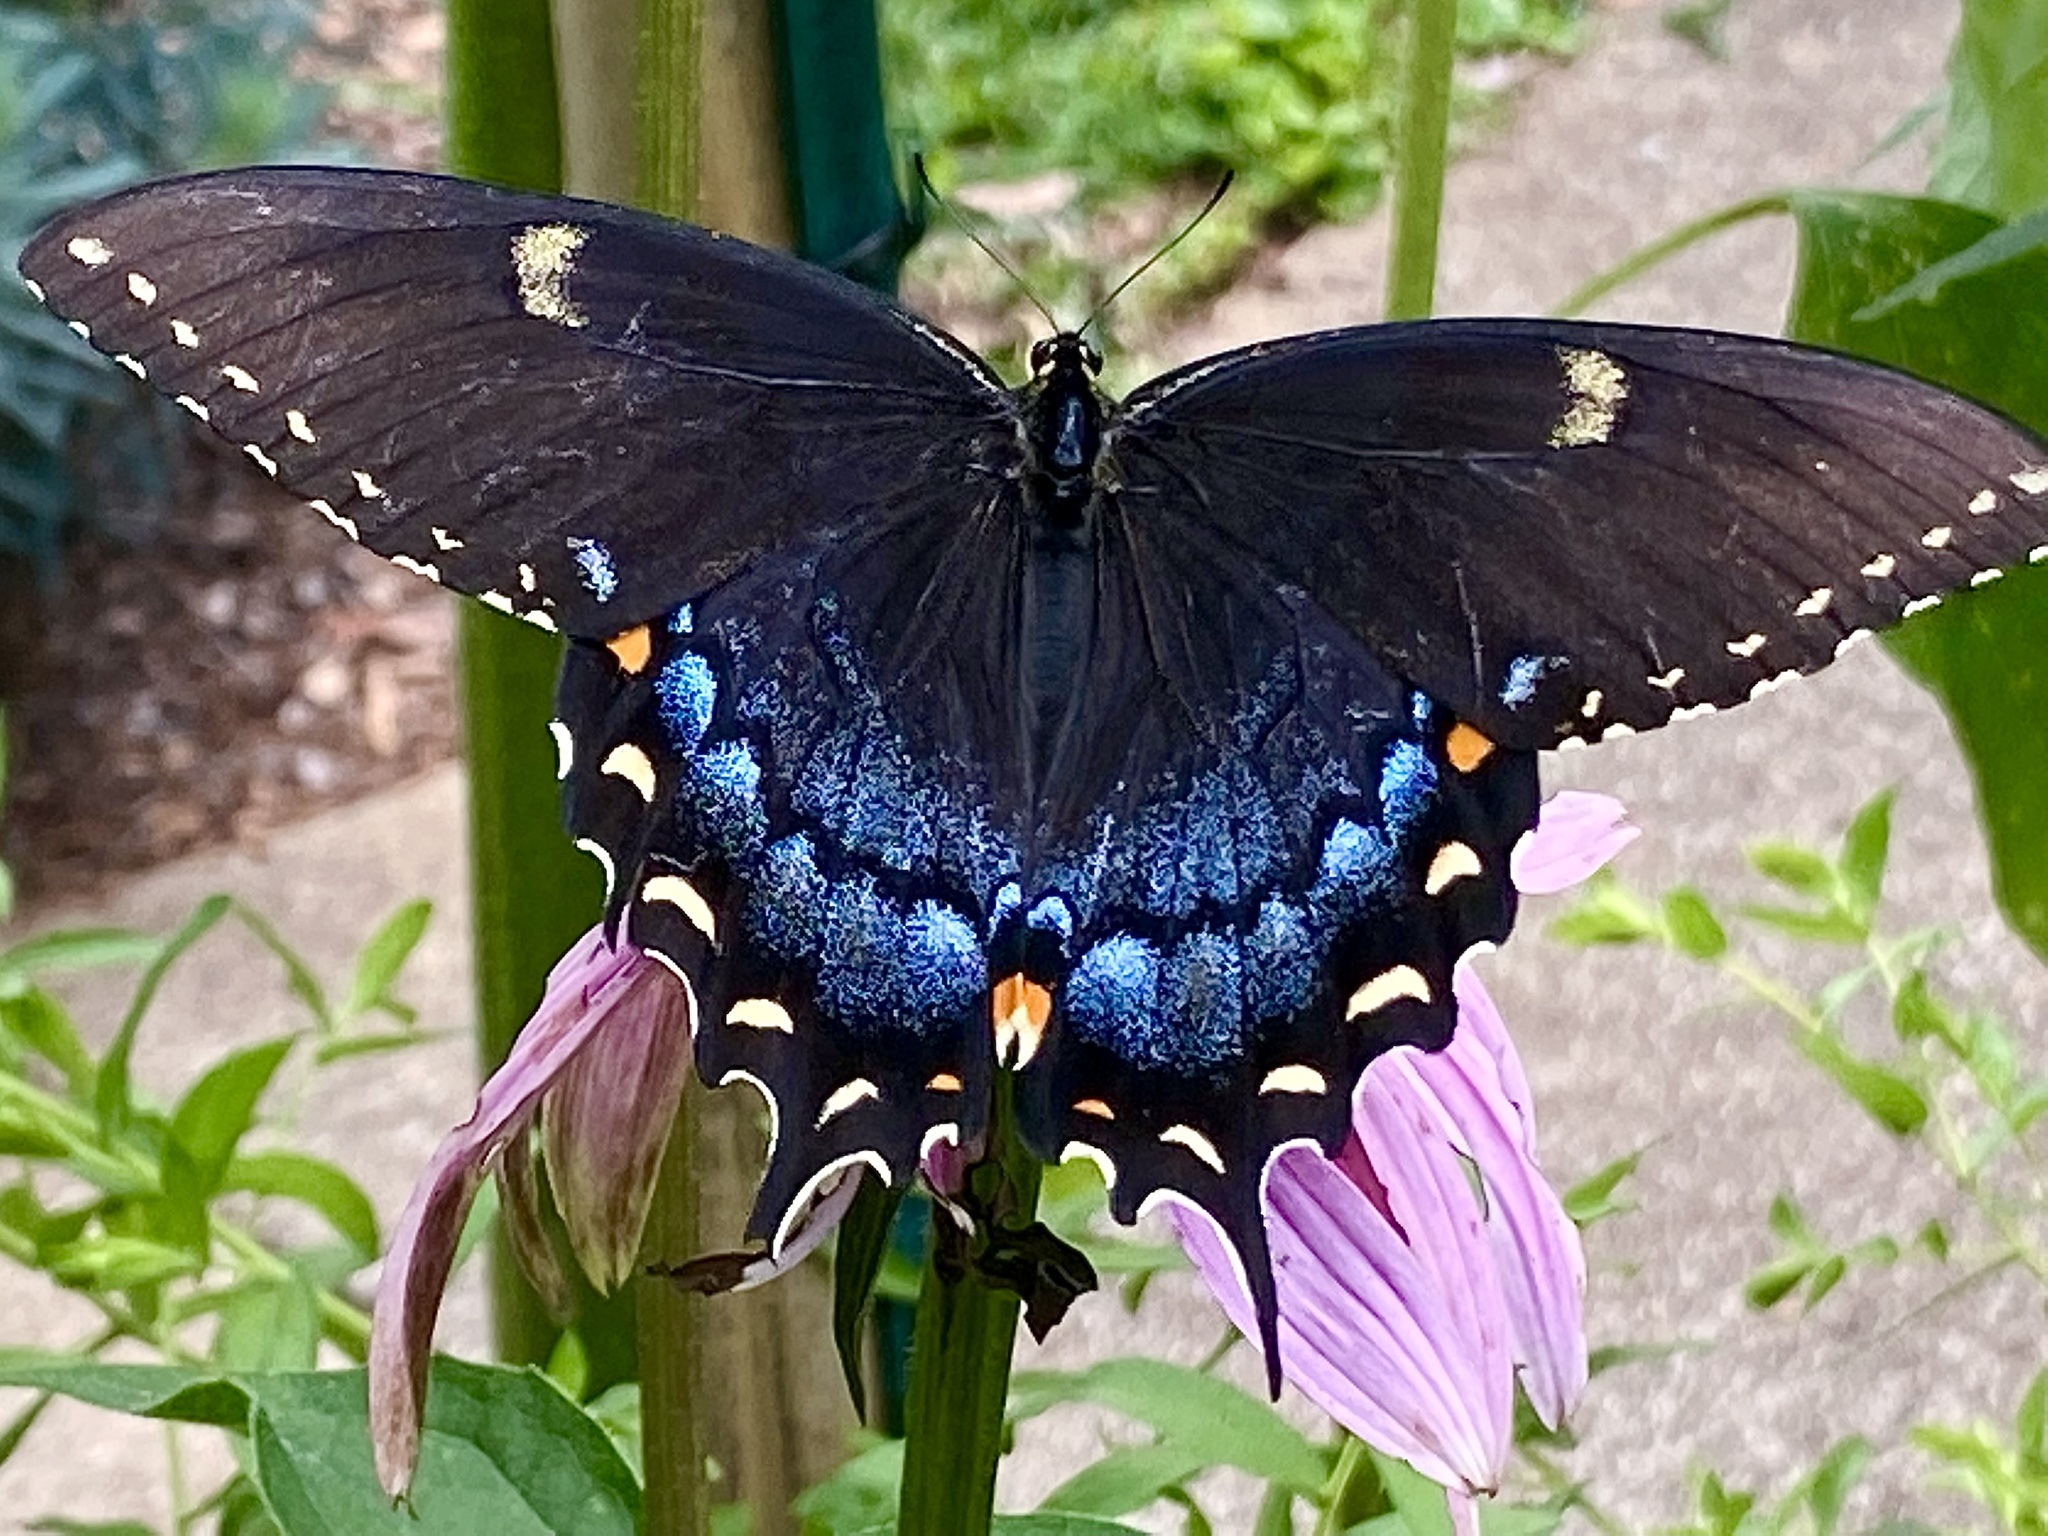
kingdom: Animalia
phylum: Arthropoda
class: Insecta
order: Lepidoptera
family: Papilionidae
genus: Papilio
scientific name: Papilio glaucus
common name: Tiger swallowtail
